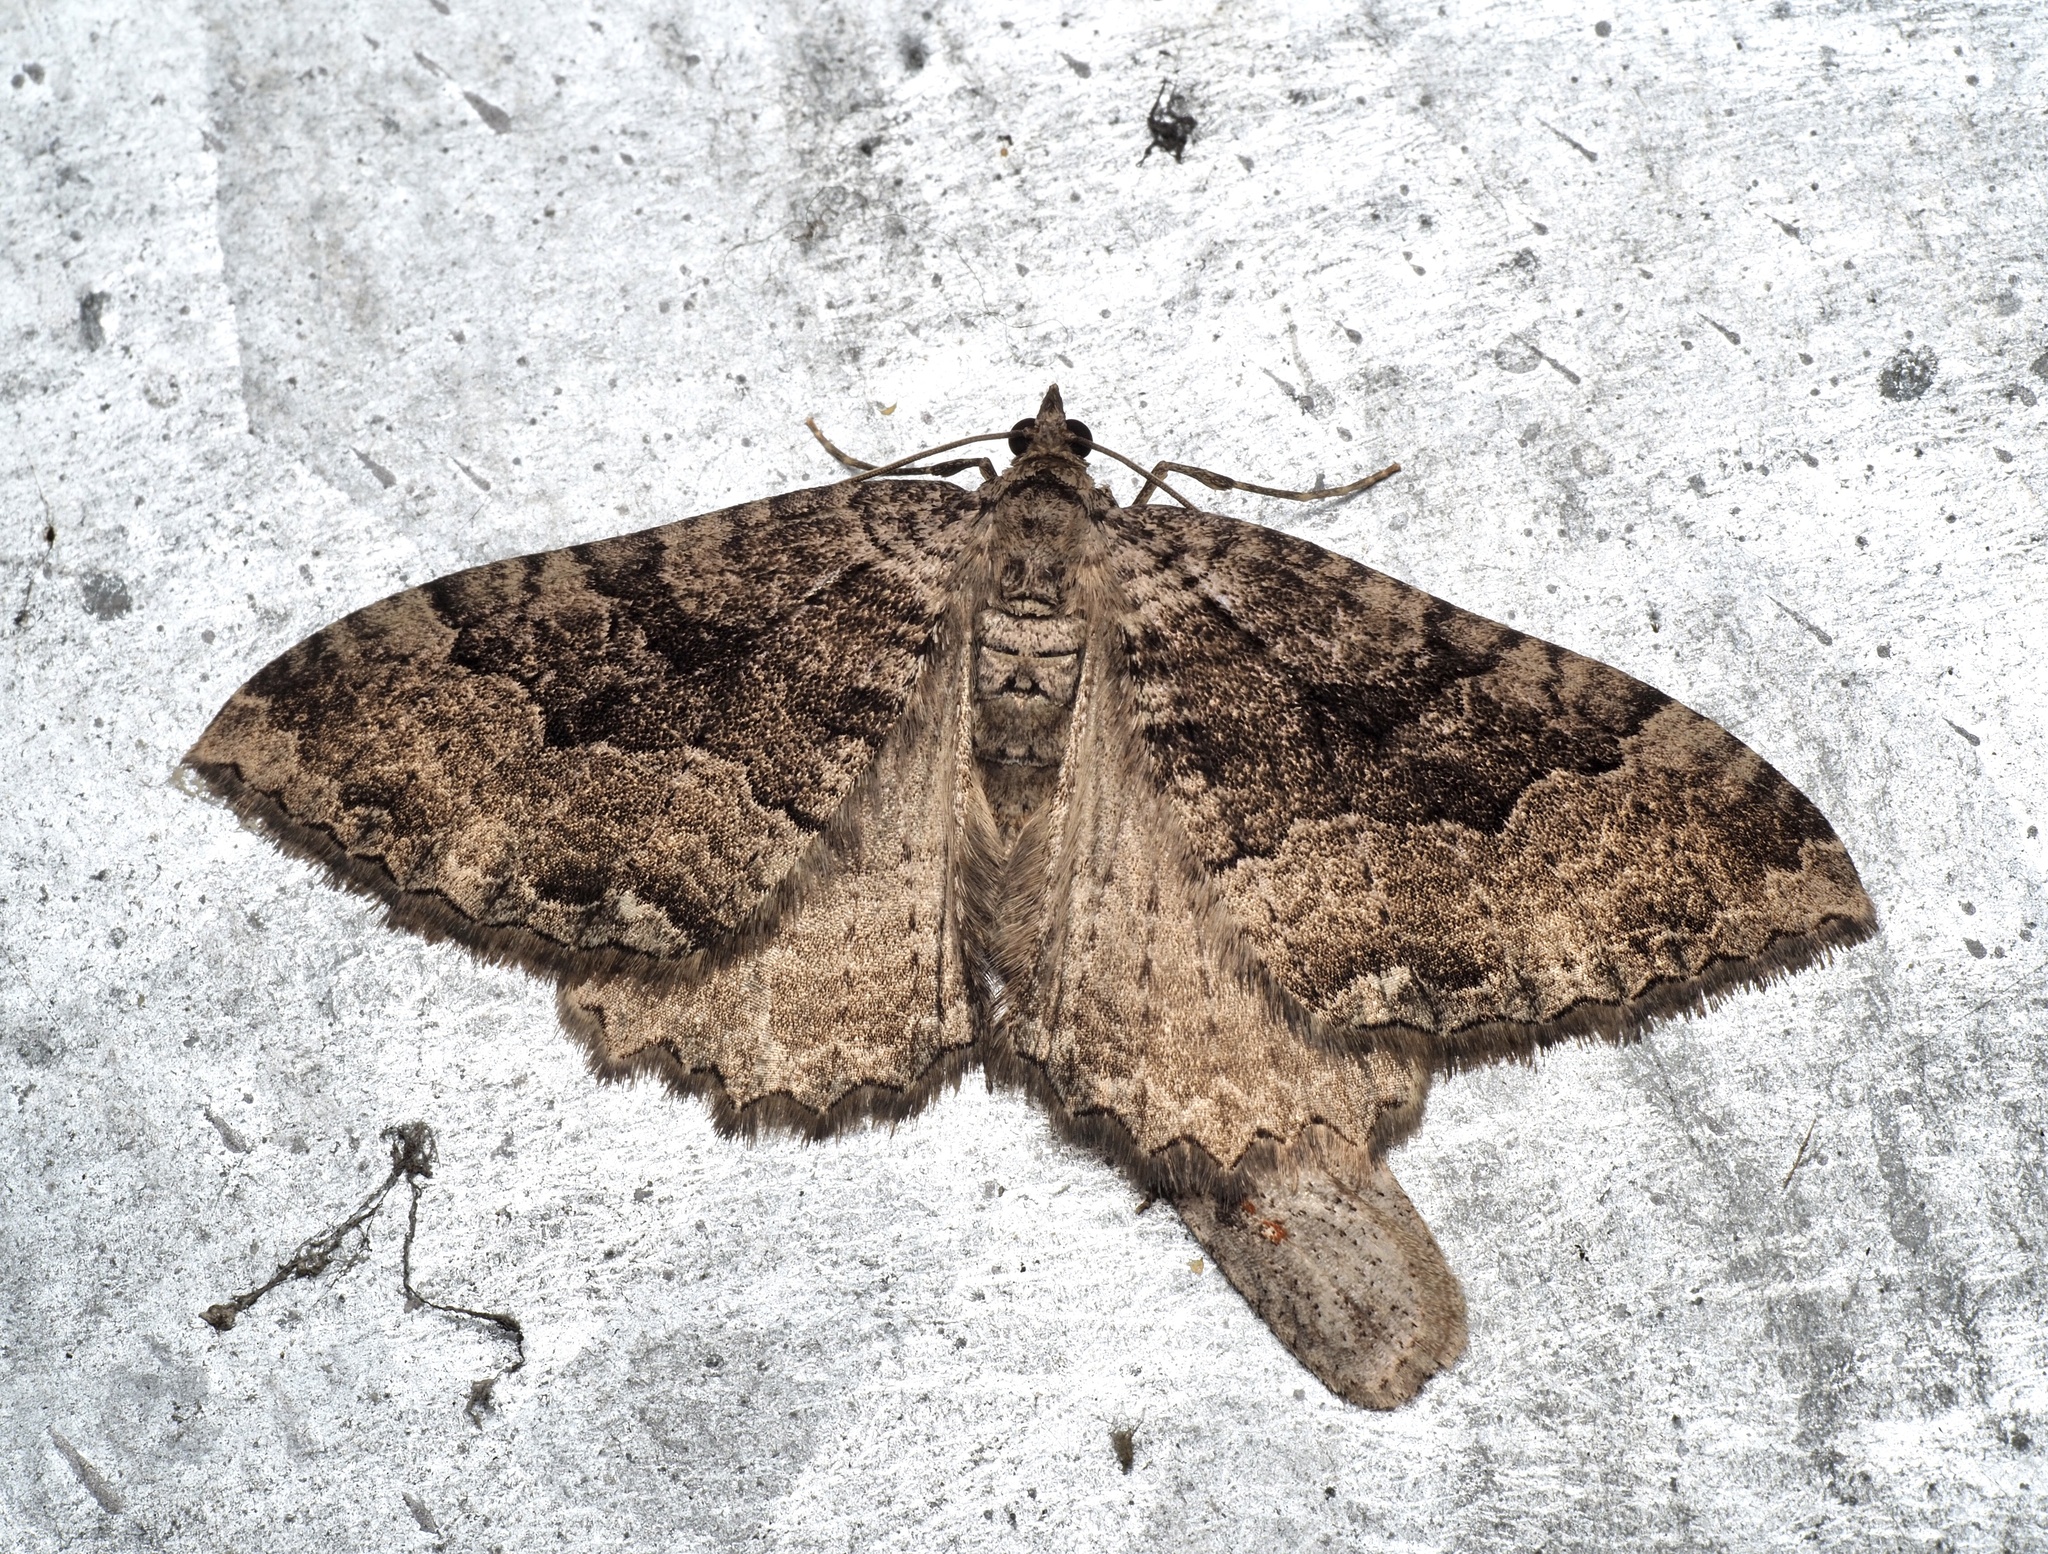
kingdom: Animalia
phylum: Arthropoda
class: Insecta
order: Lepidoptera
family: Geometridae
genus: Triphosa
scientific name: Triphosa dubitata
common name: Tissue
